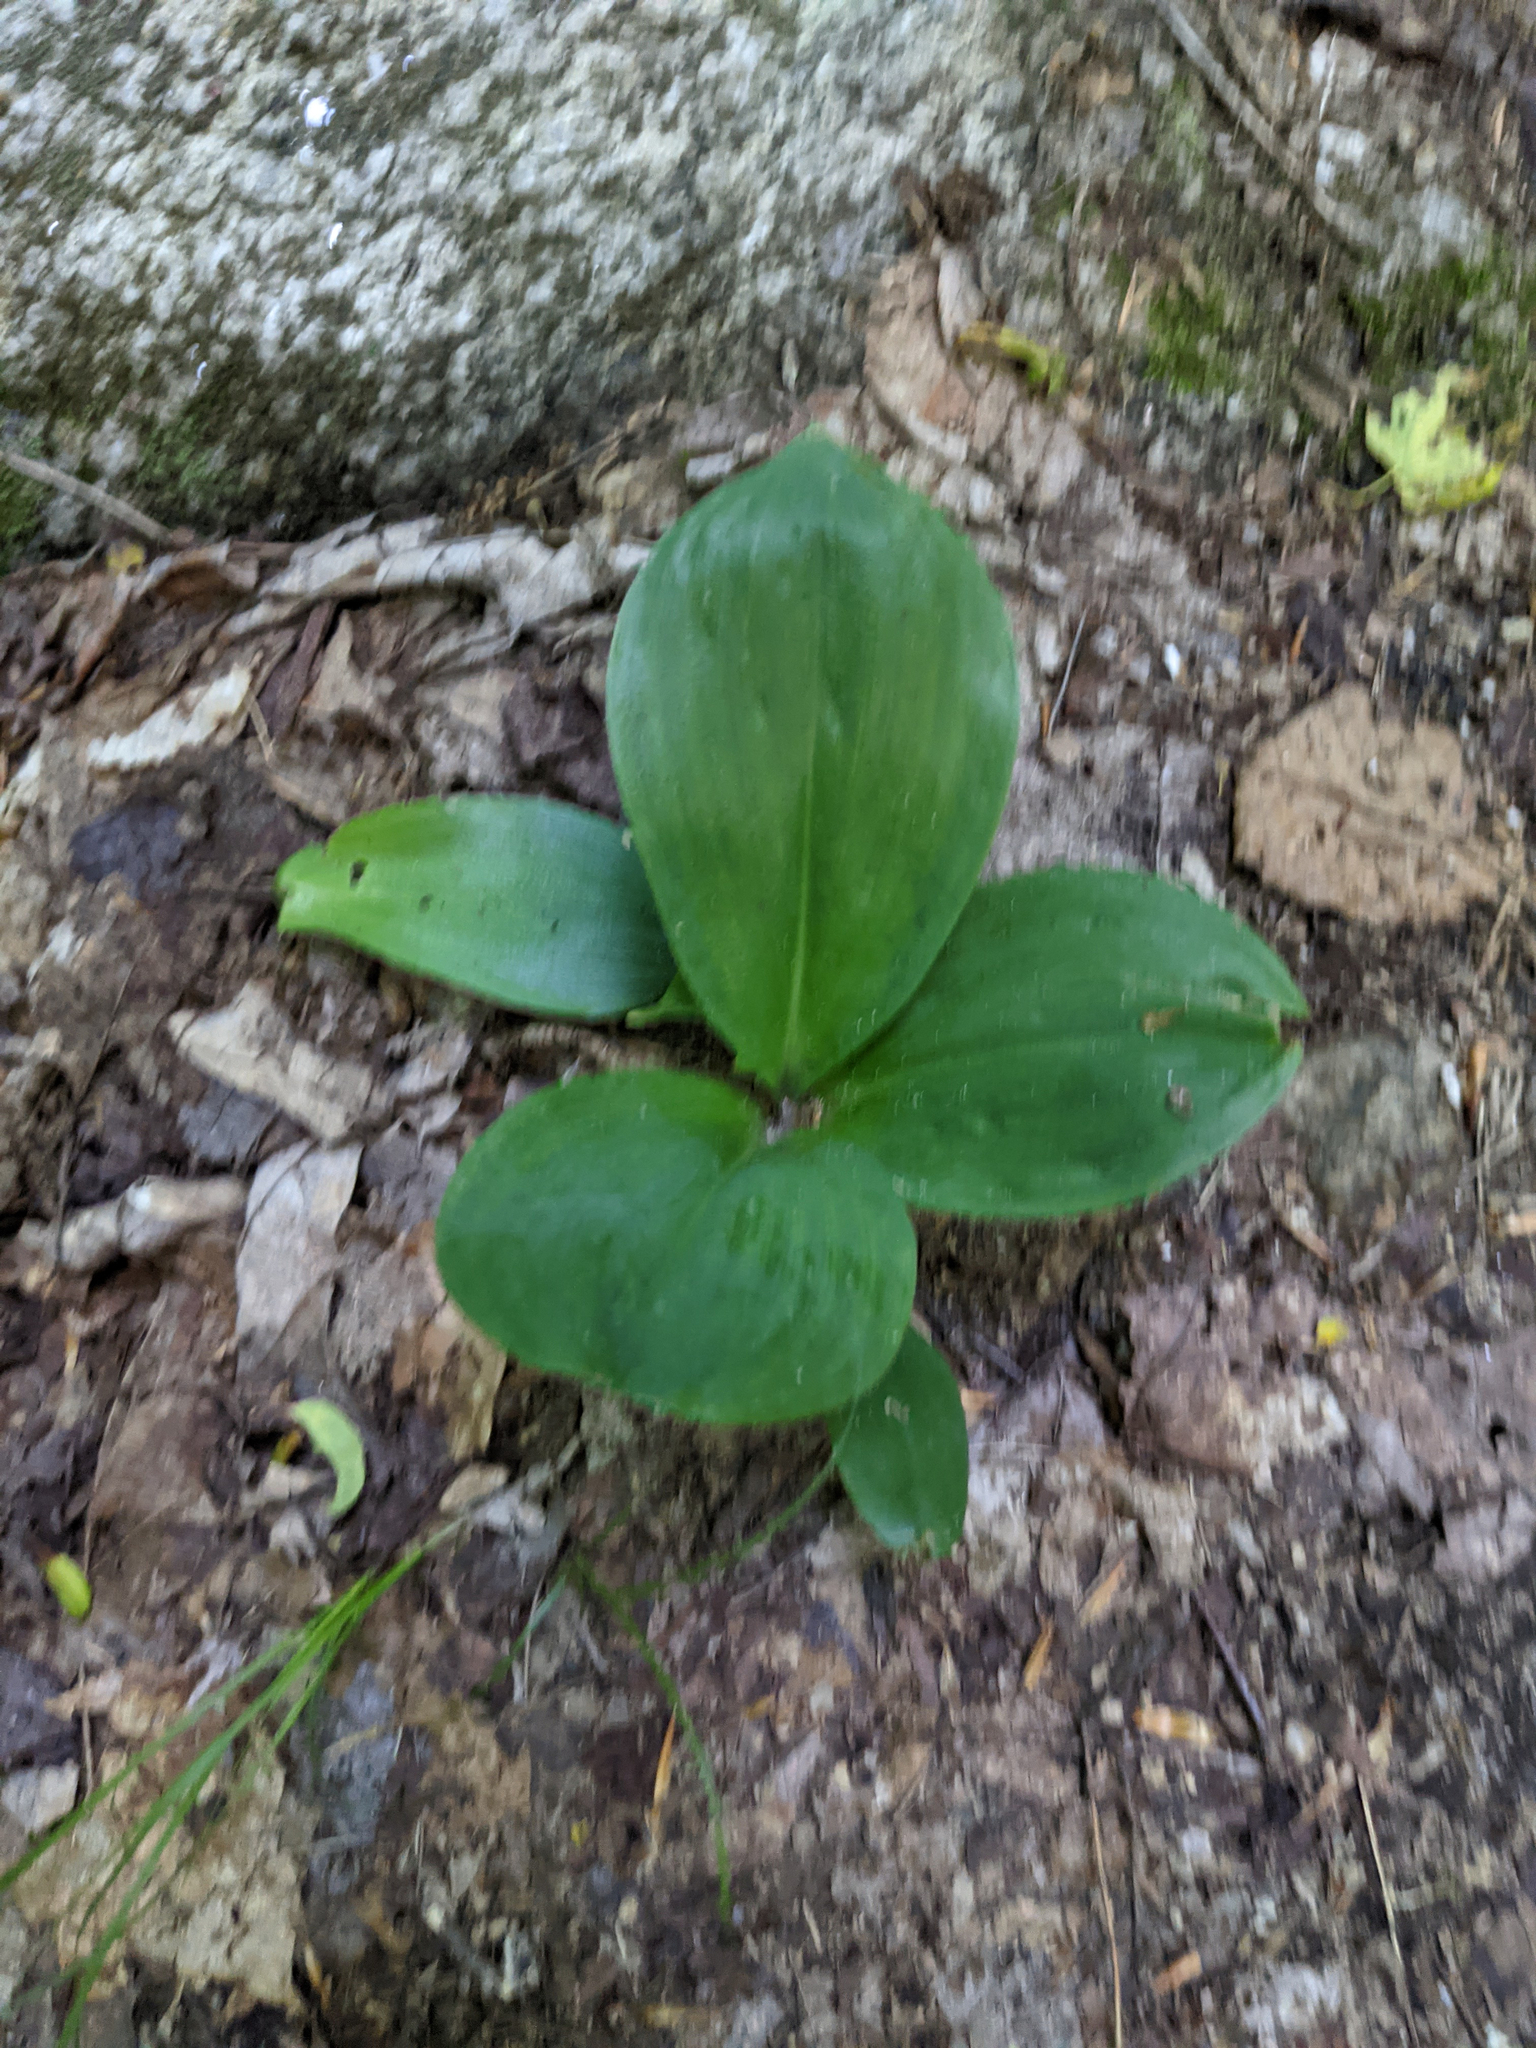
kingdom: Plantae
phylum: Tracheophyta
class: Liliopsida
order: Liliales
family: Liliaceae
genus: Clintonia
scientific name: Clintonia borealis
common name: Yellow clintonia
